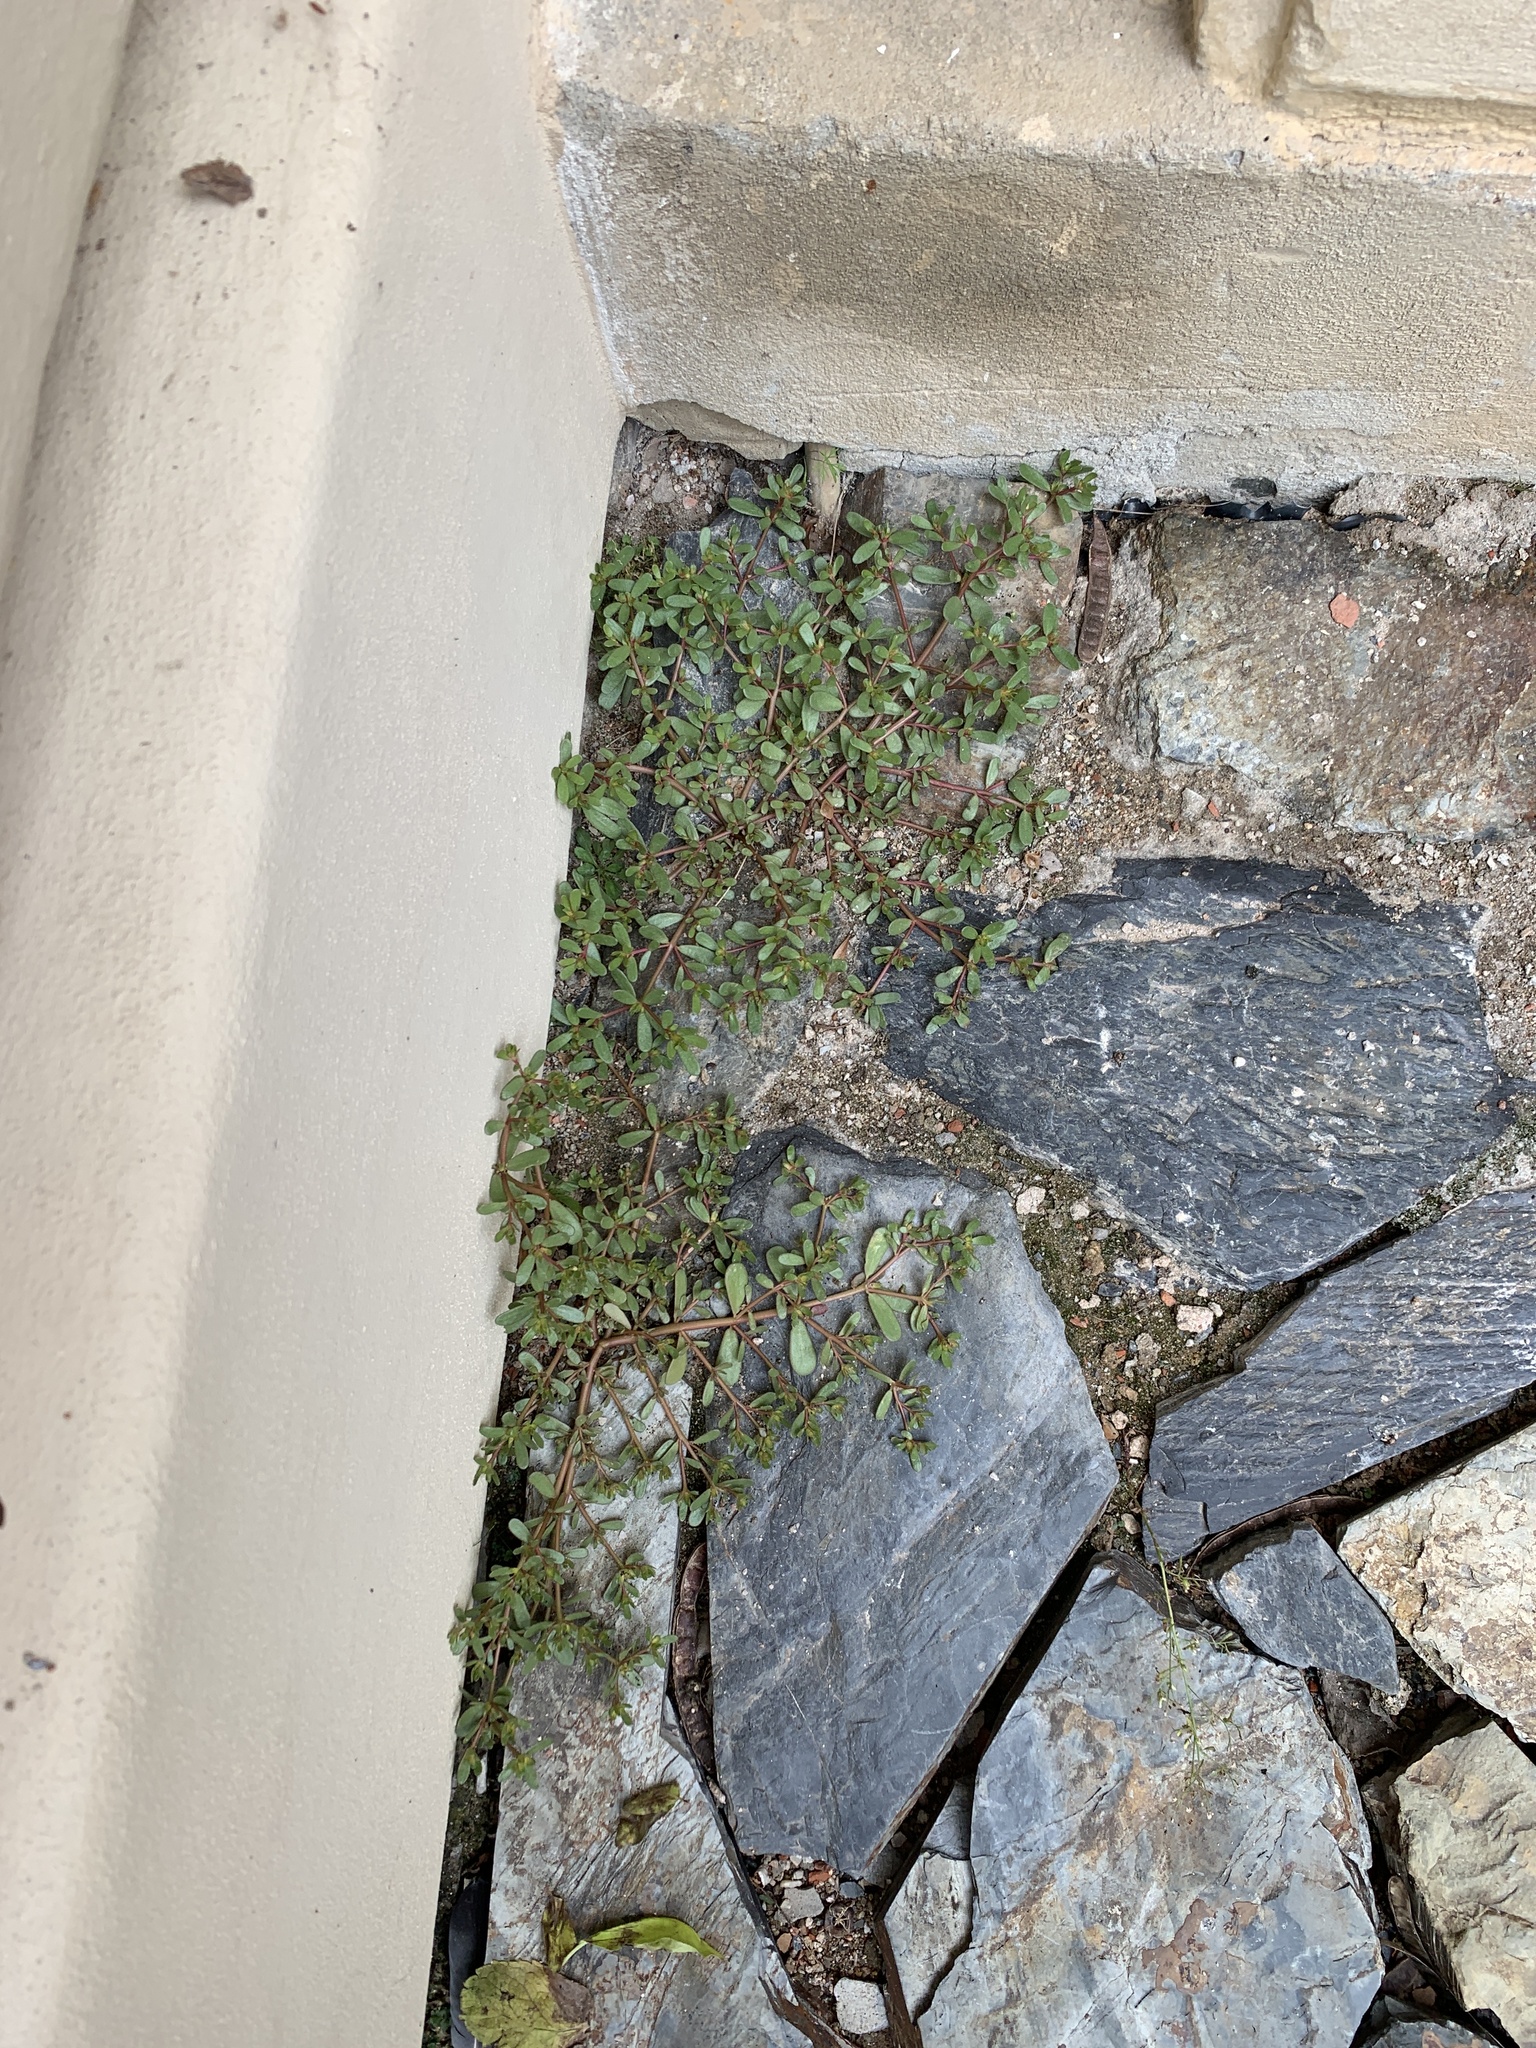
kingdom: Plantae
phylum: Tracheophyta
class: Magnoliopsida
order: Caryophyllales
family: Portulacaceae
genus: Portulaca
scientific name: Portulaca oleracea
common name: Common purslane
